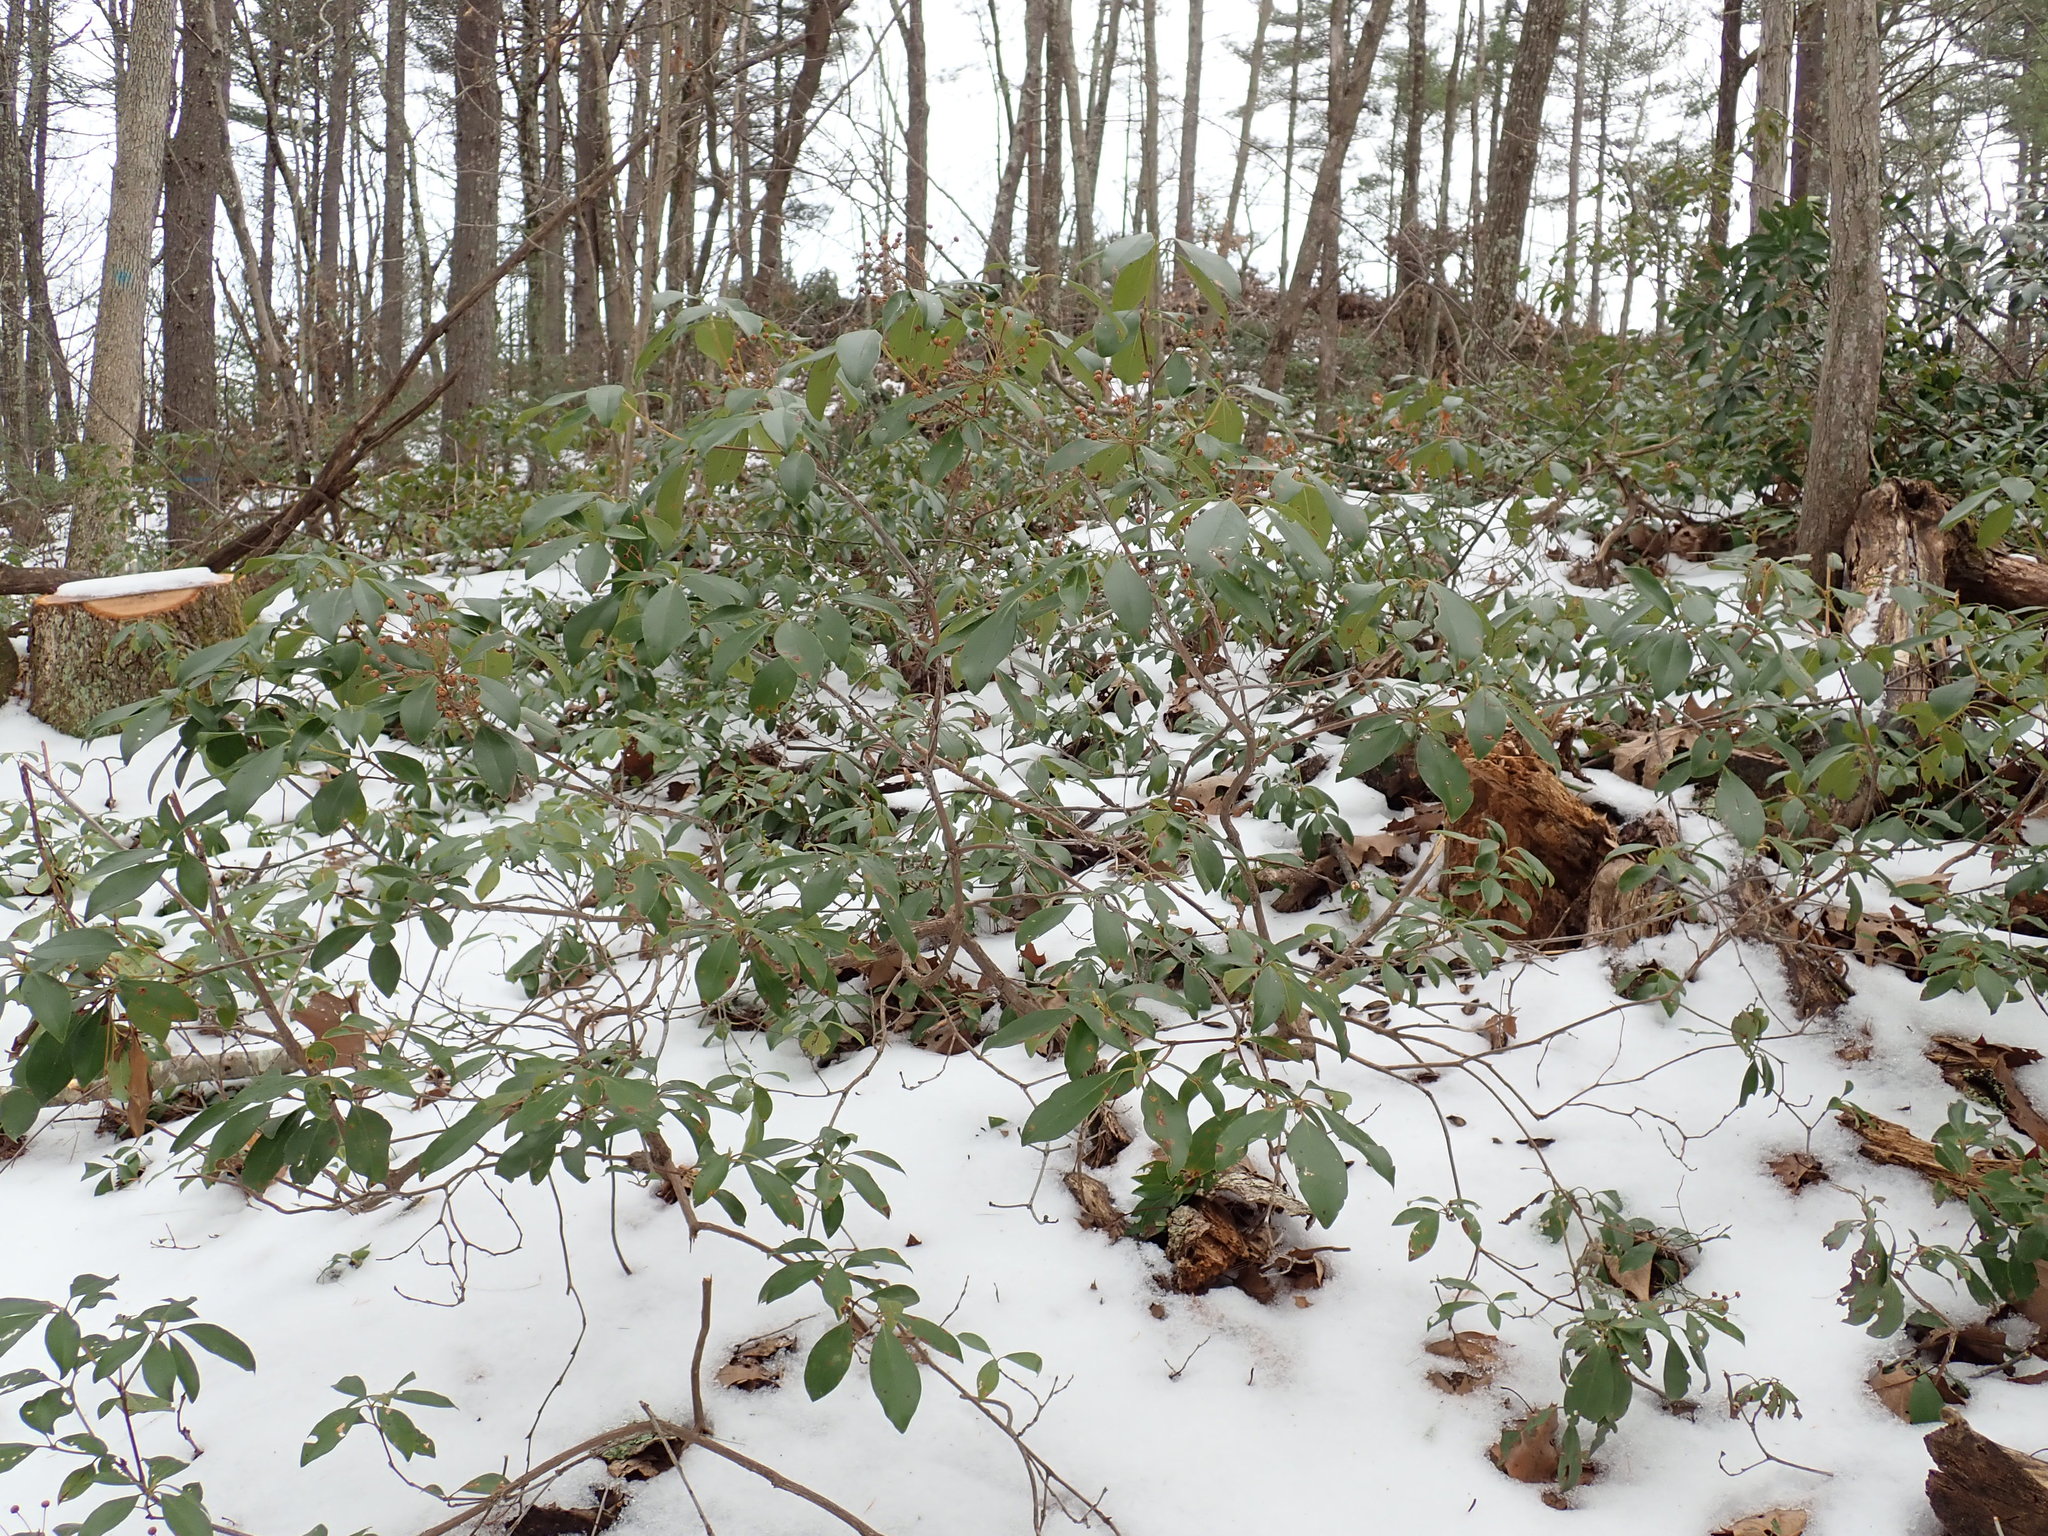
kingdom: Plantae
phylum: Tracheophyta
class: Magnoliopsida
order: Ericales
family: Ericaceae
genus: Kalmia
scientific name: Kalmia latifolia
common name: Mountain-laurel
